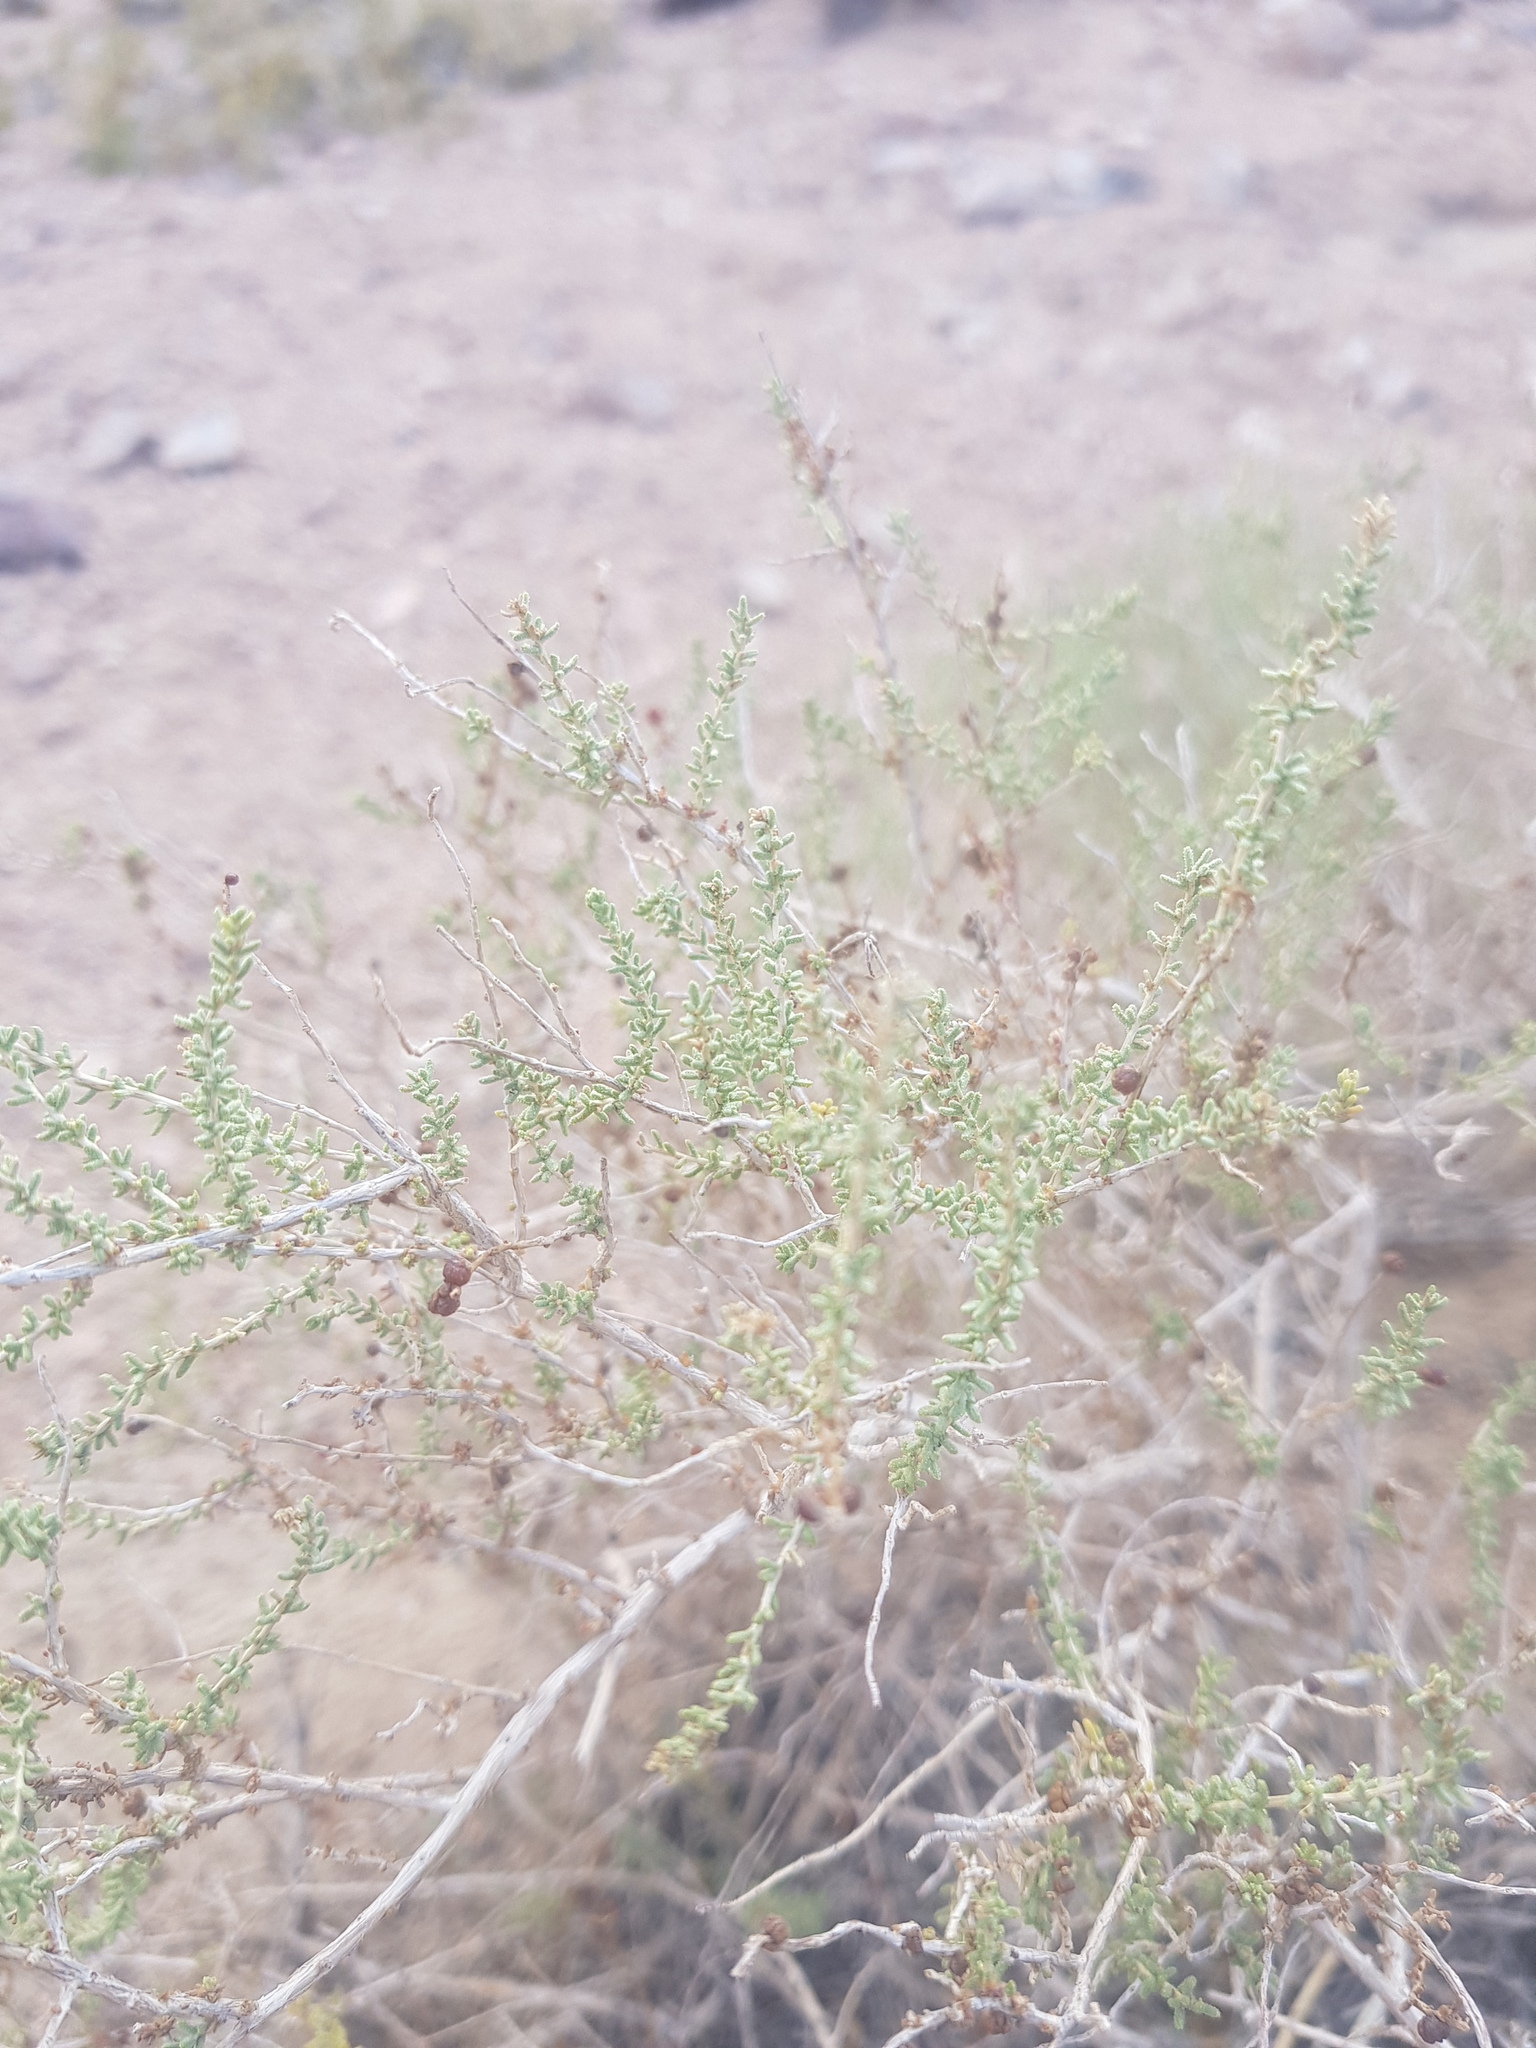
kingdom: Plantae
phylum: Tracheophyta
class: Magnoliopsida
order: Caryophyllales
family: Tamaricaceae
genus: Reaumuria
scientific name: Reaumuria songarica
